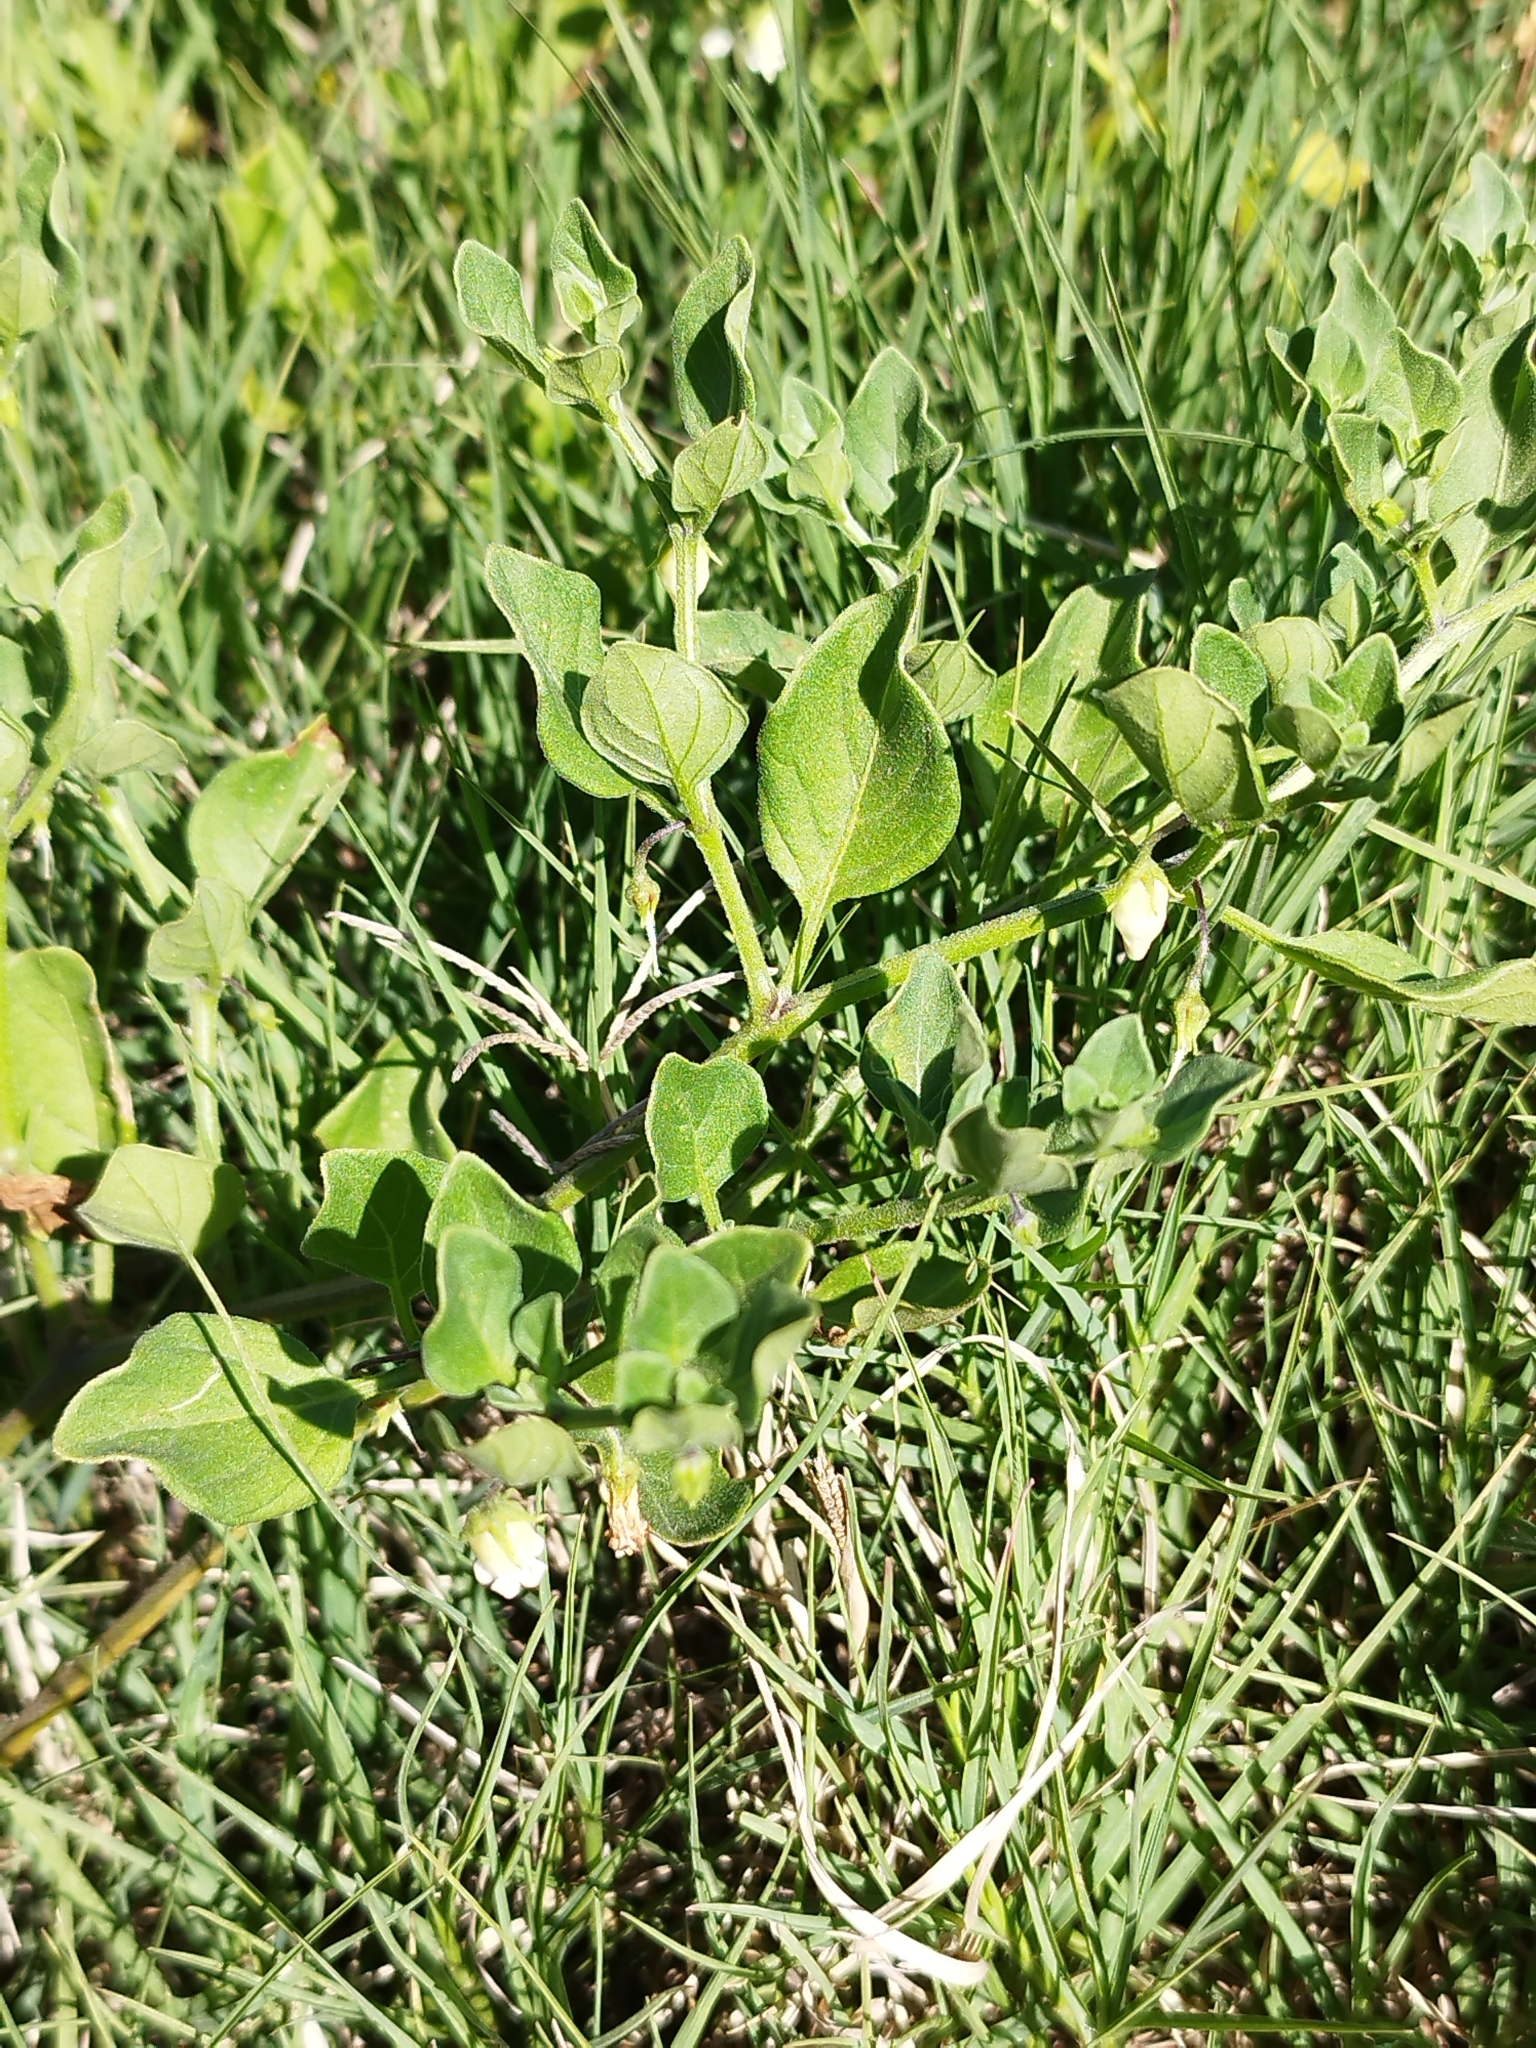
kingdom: Plantae
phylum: Tracheophyta
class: Magnoliopsida
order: Solanales
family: Solanaceae
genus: Salpichroa
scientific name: Salpichroa origanifolia
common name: Lily-of-the-valley-vine
